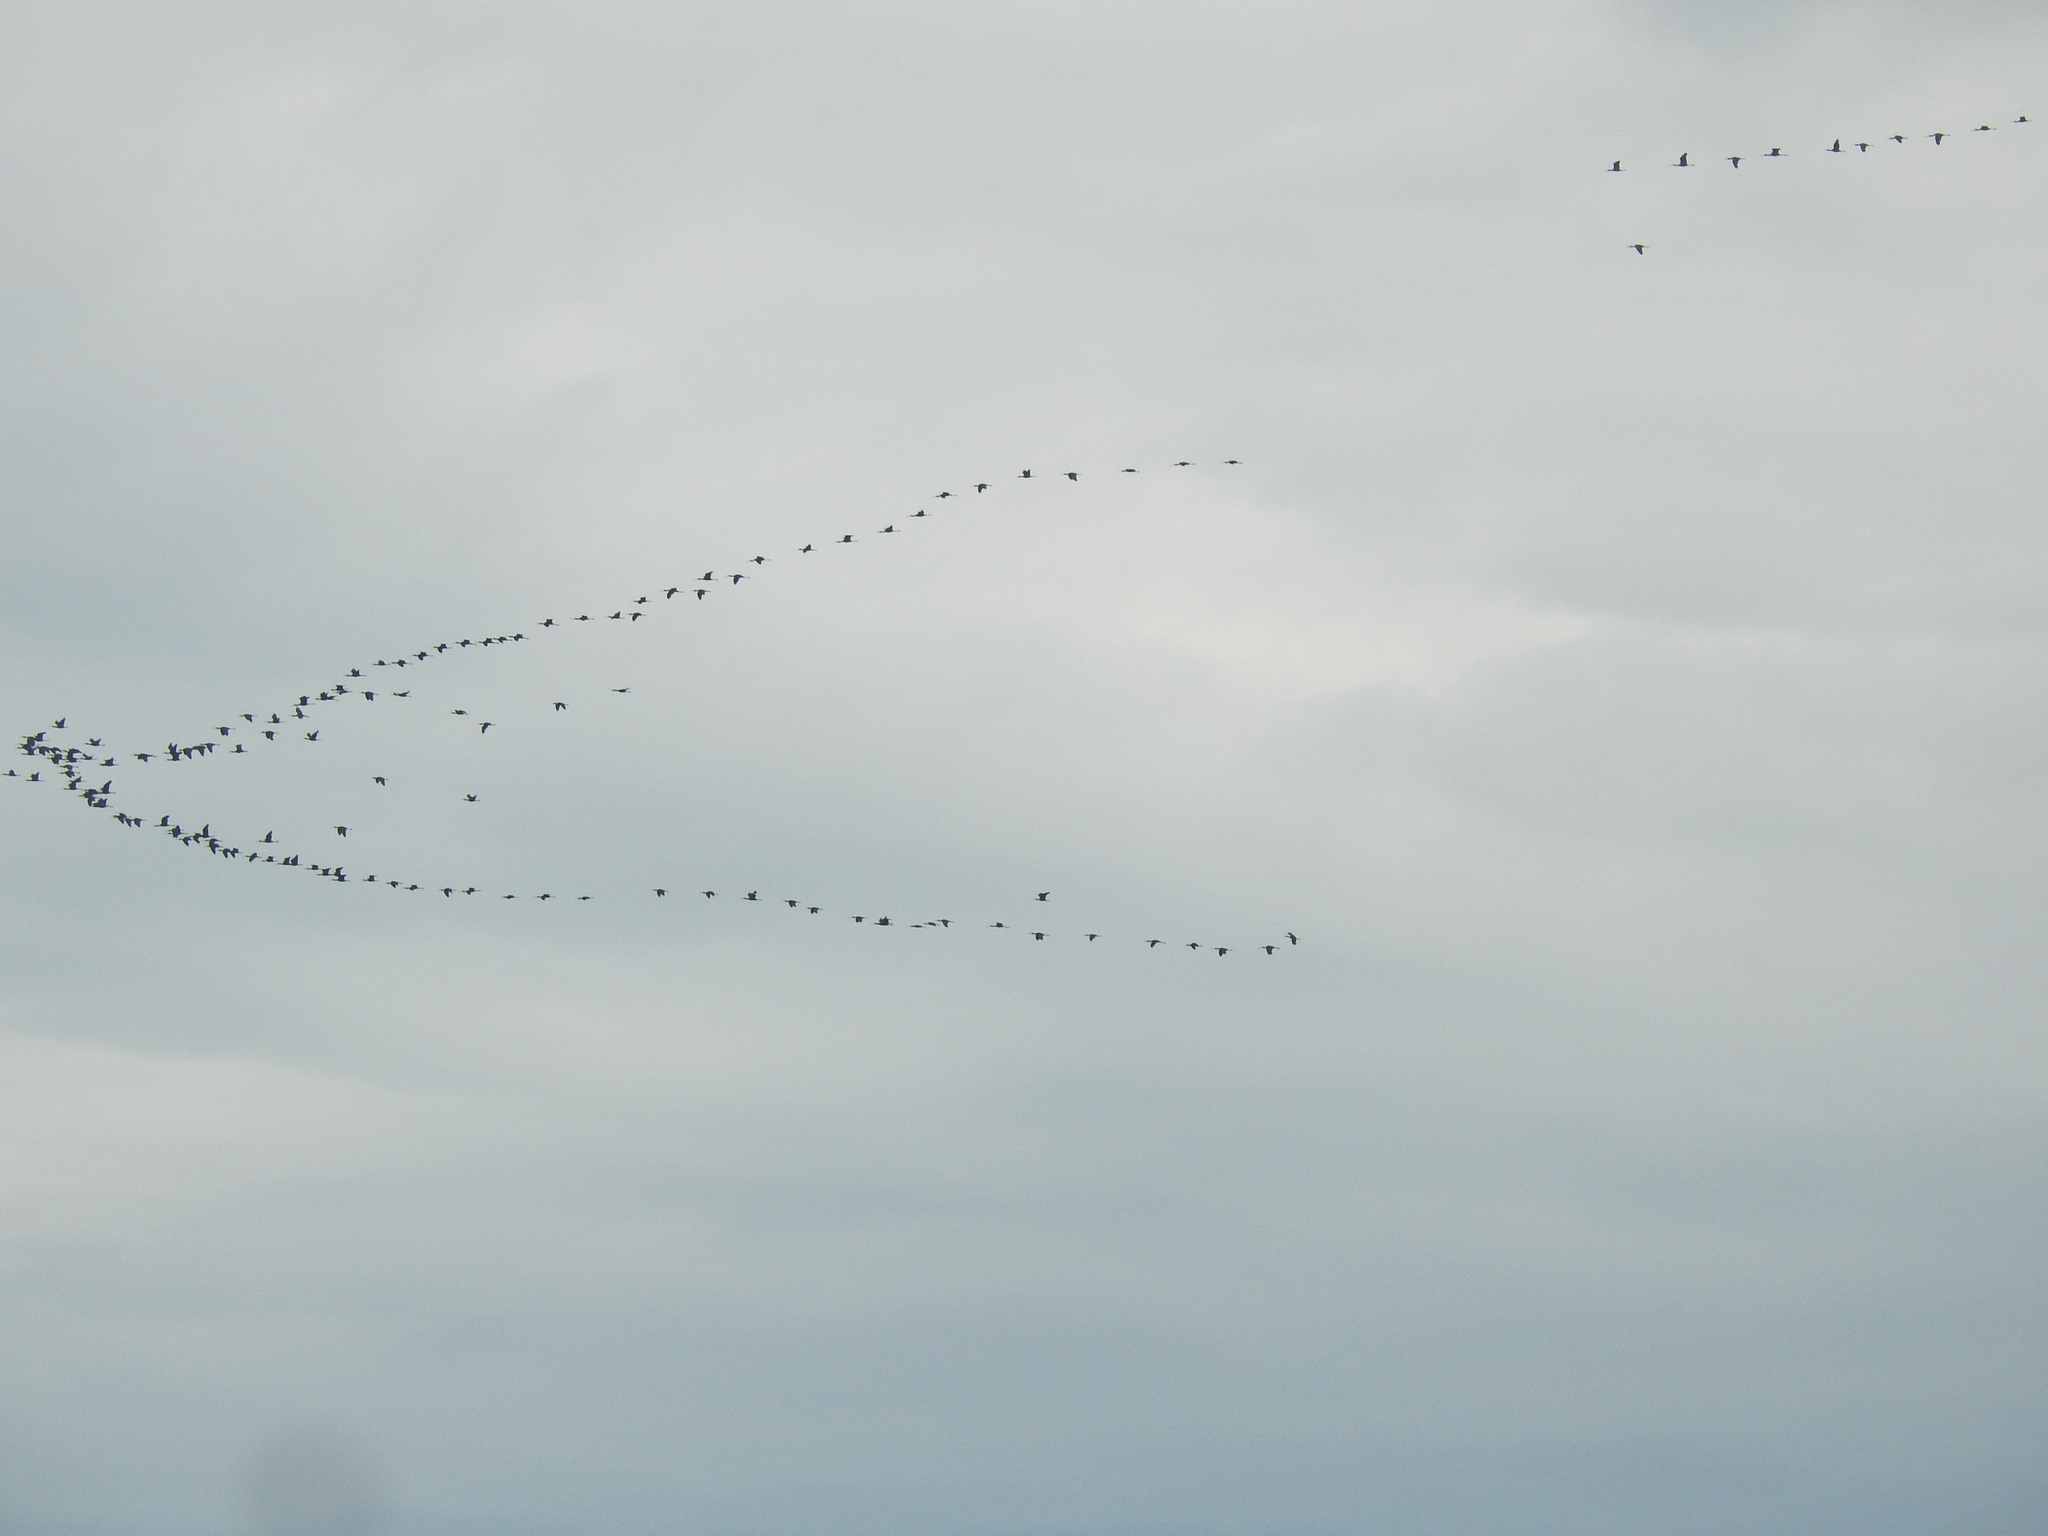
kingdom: Animalia
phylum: Chordata
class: Aves
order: Pelecaniformes
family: Threskiornithidae
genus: Plegadis
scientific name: Plegadis chihi
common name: White-faced ibis
